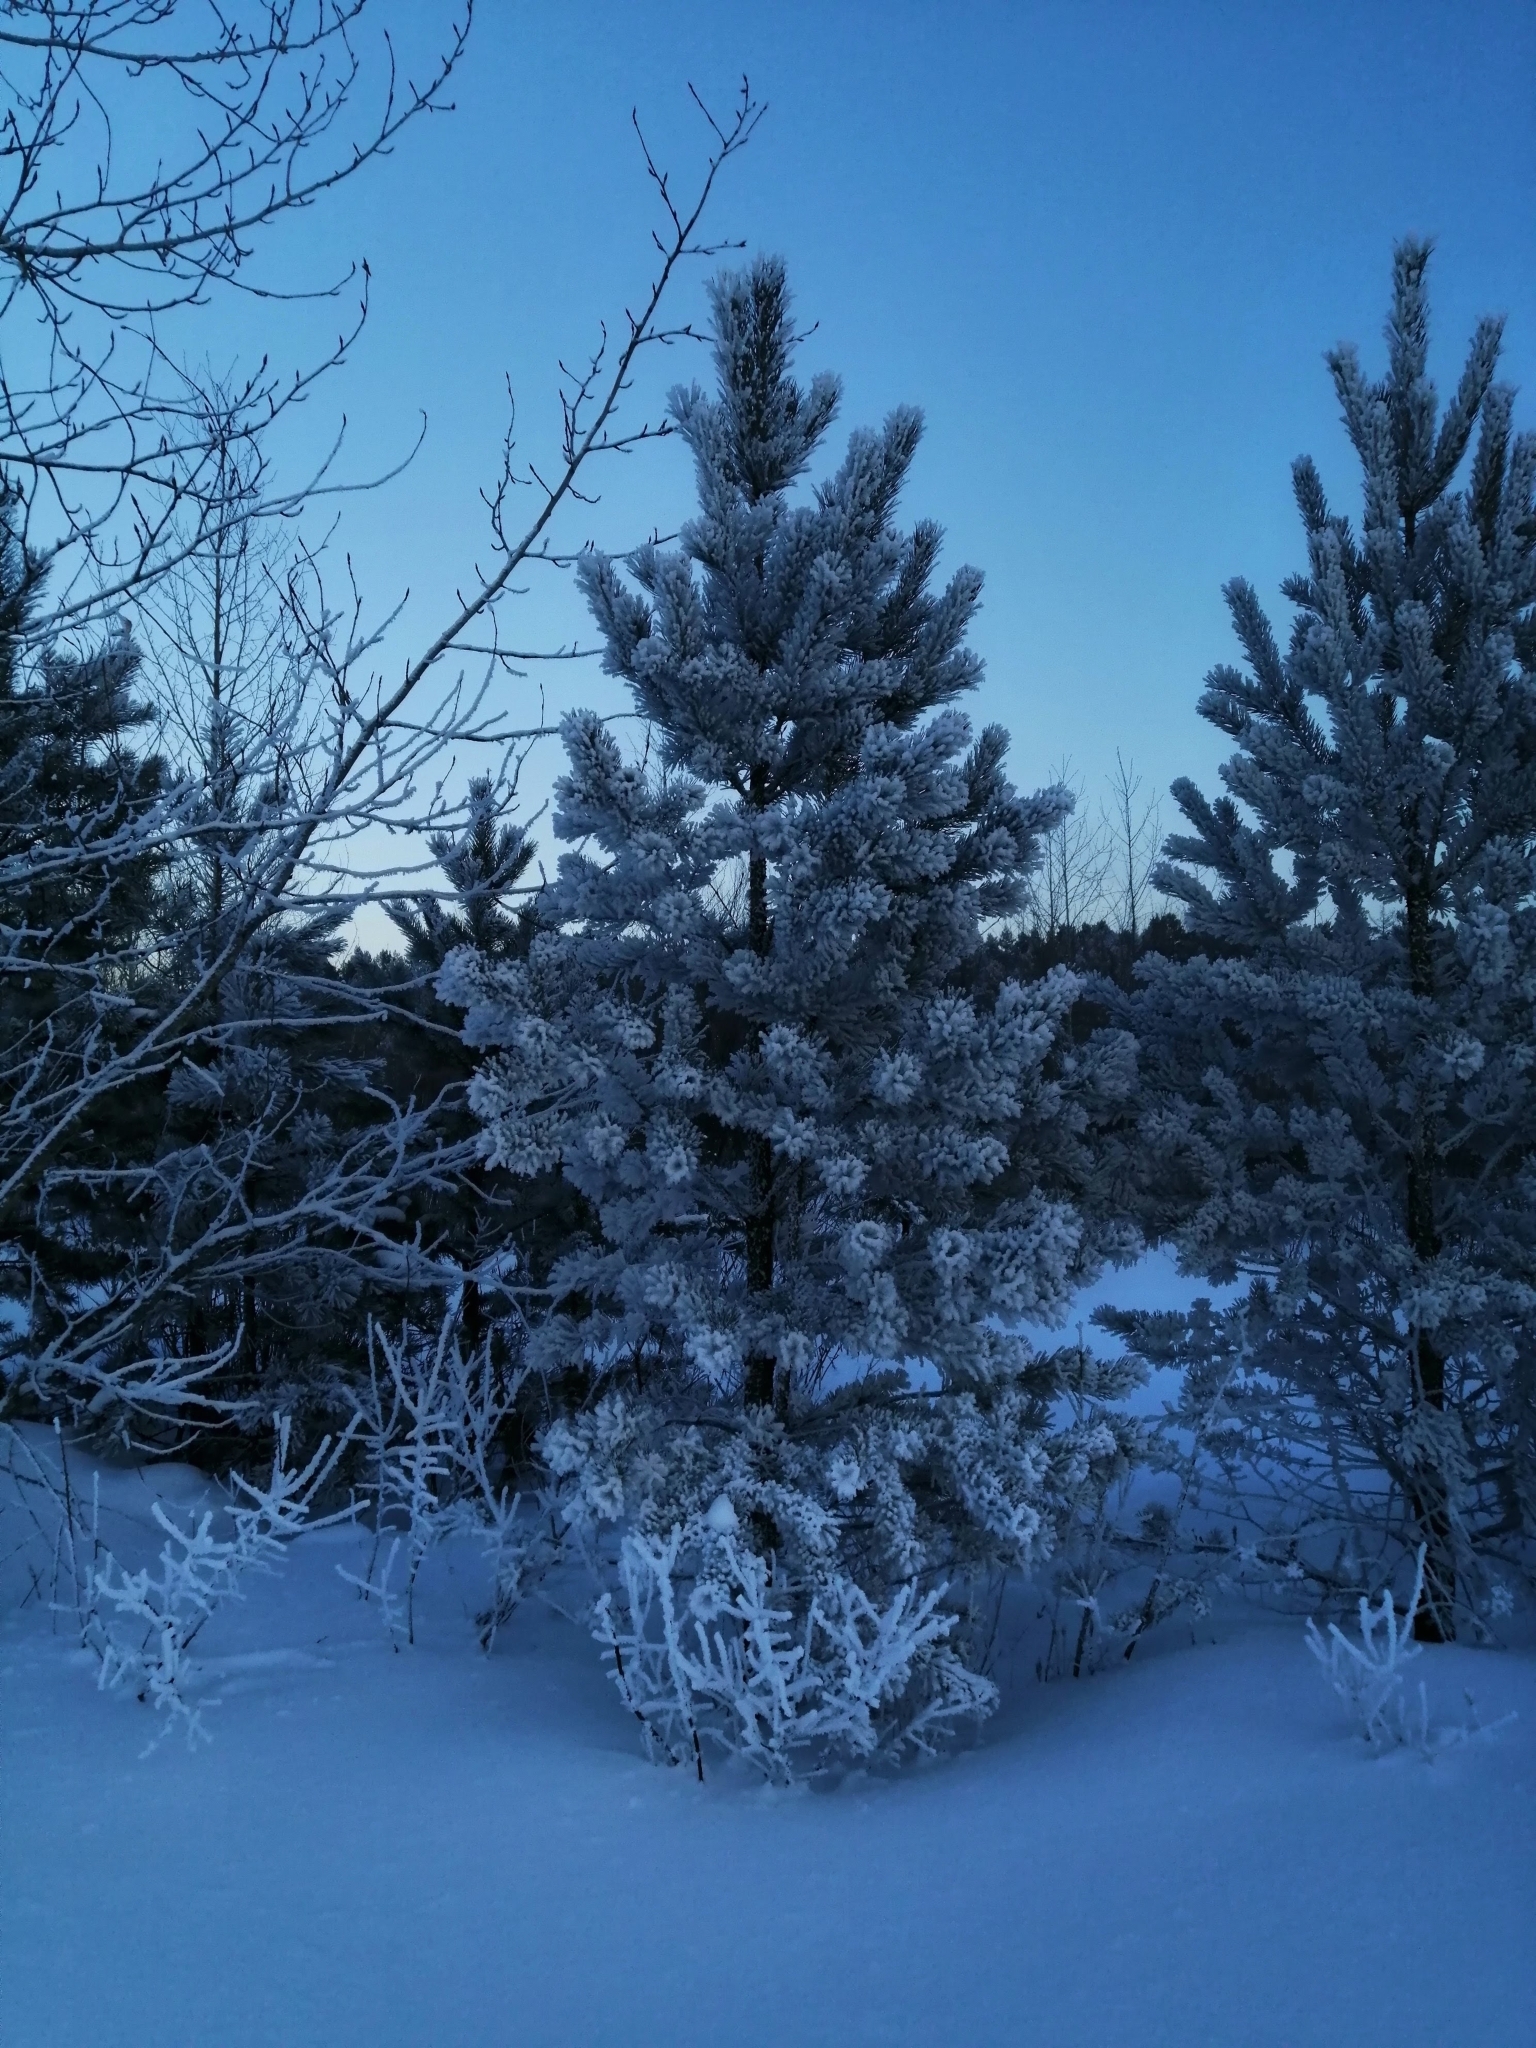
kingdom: Plantae
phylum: Tracheophyta
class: Pinopsida
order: Pinales
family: Pinaceae
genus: Pinus
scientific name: Pinus sylvestris
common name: Scots pine
